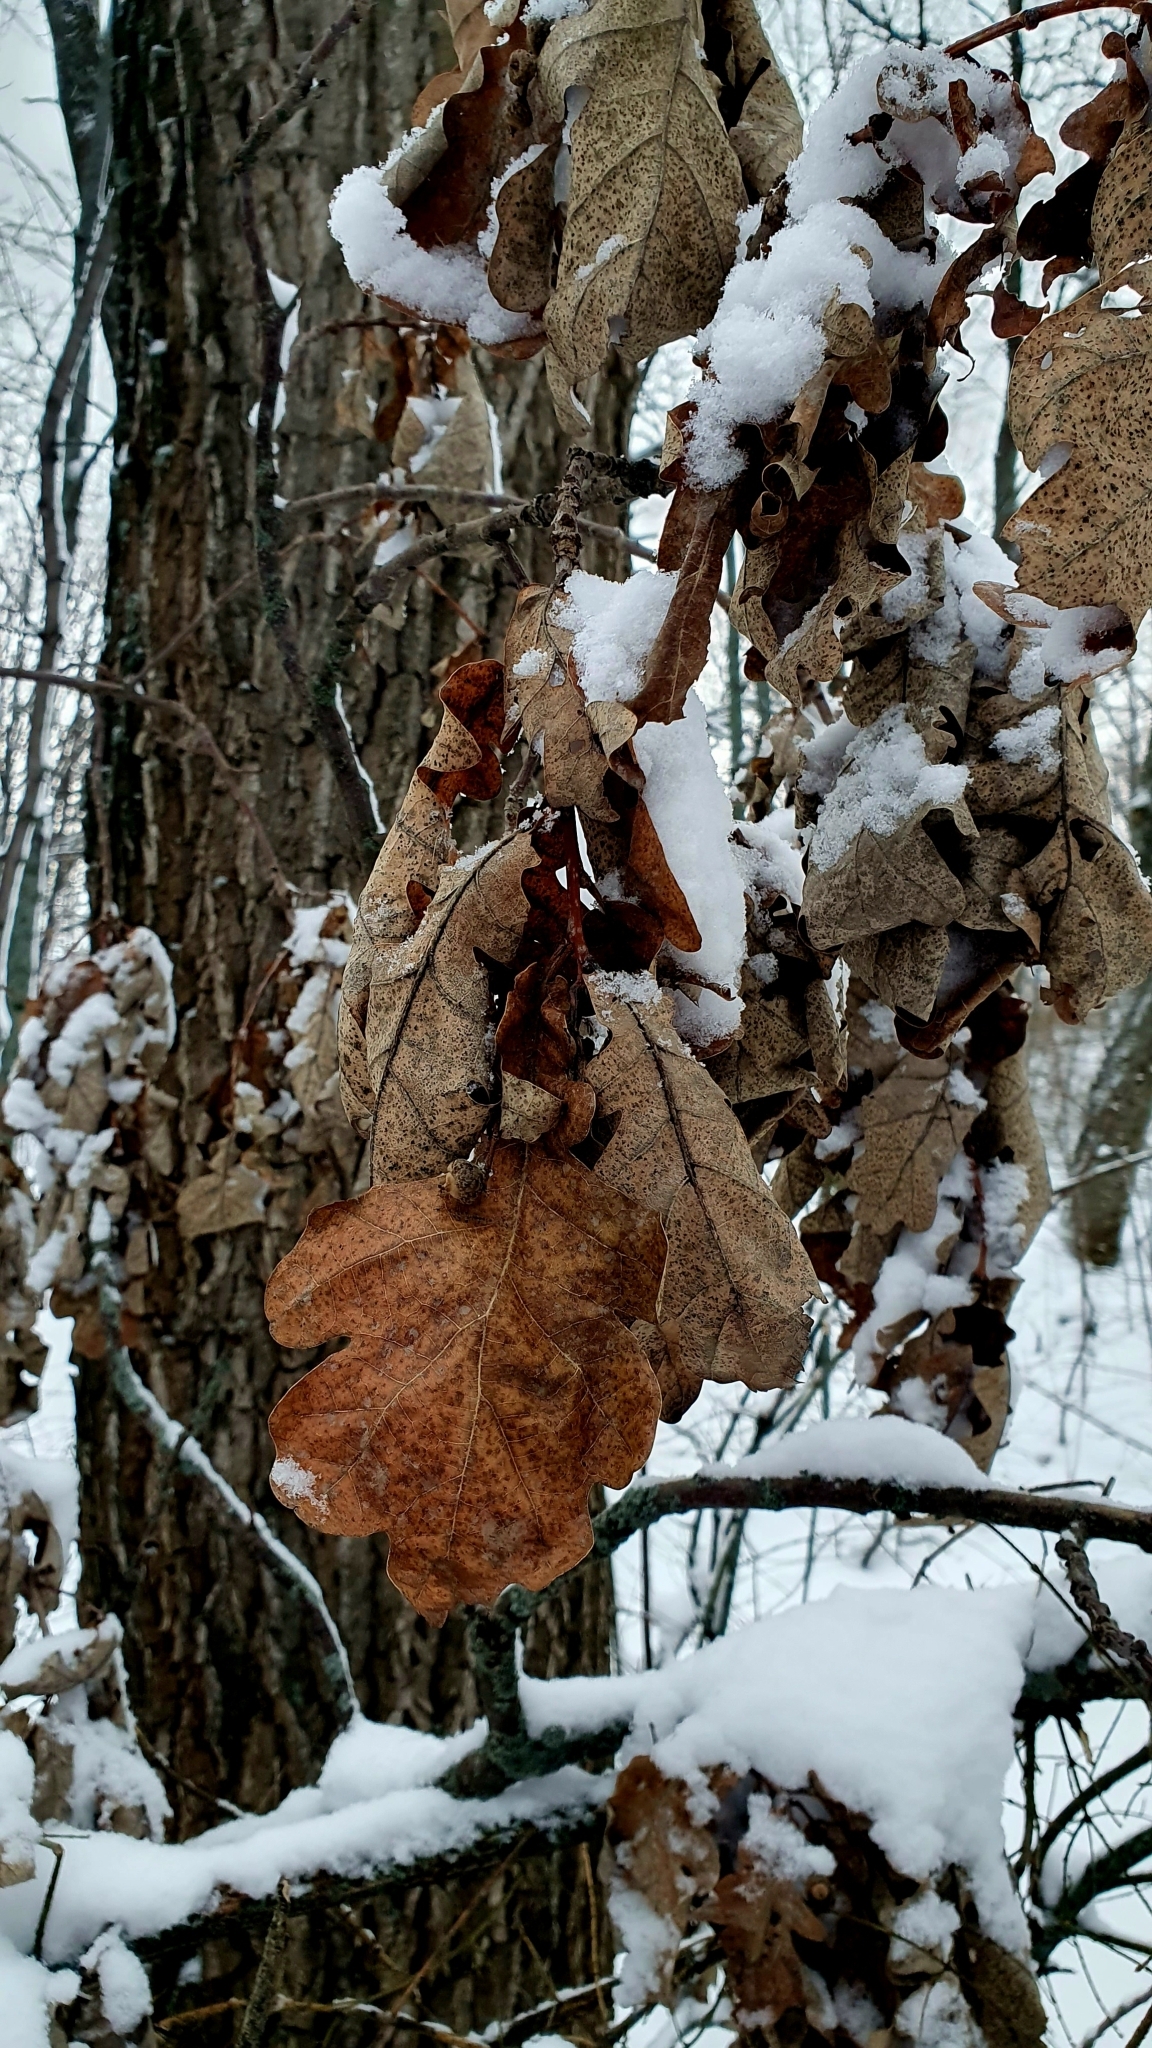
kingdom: Plantae
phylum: Tracheophyta
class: Magnoliopsida
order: Fagales
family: Fagaceae
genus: Quercus
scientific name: Quercus robur
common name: Pedunculate oak
